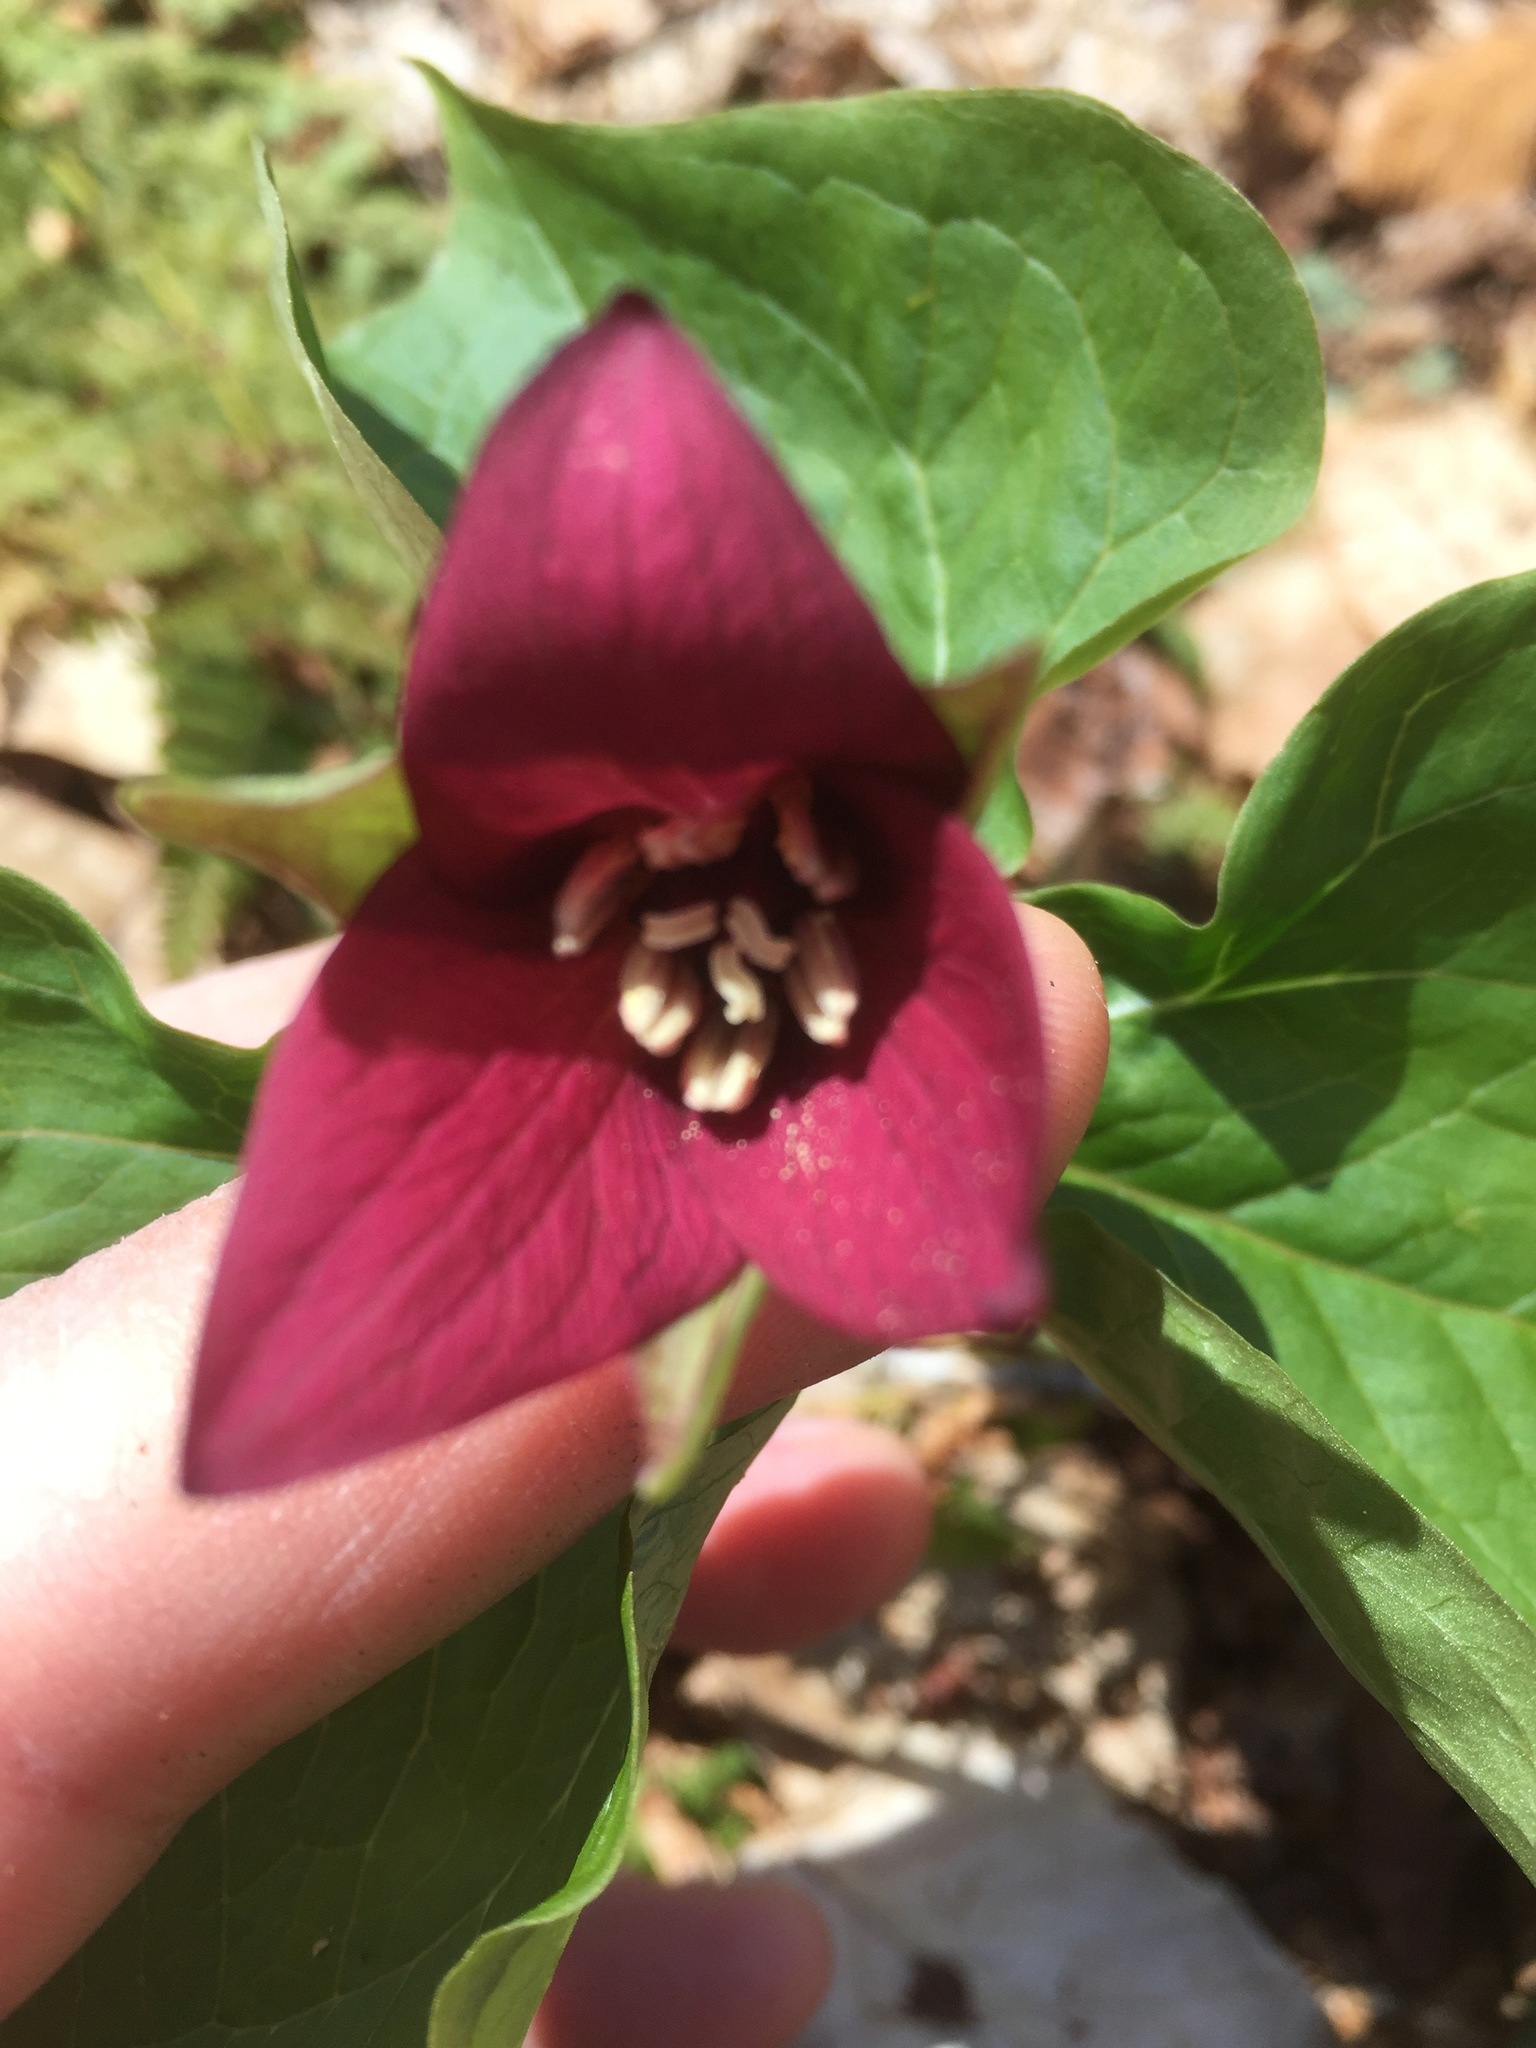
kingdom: Plantae
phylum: Tracheophyta
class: Liliopsida
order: Liliales
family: Melanthiaceae
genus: Trillium
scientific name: Trillium erectum
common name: Purple trillium
